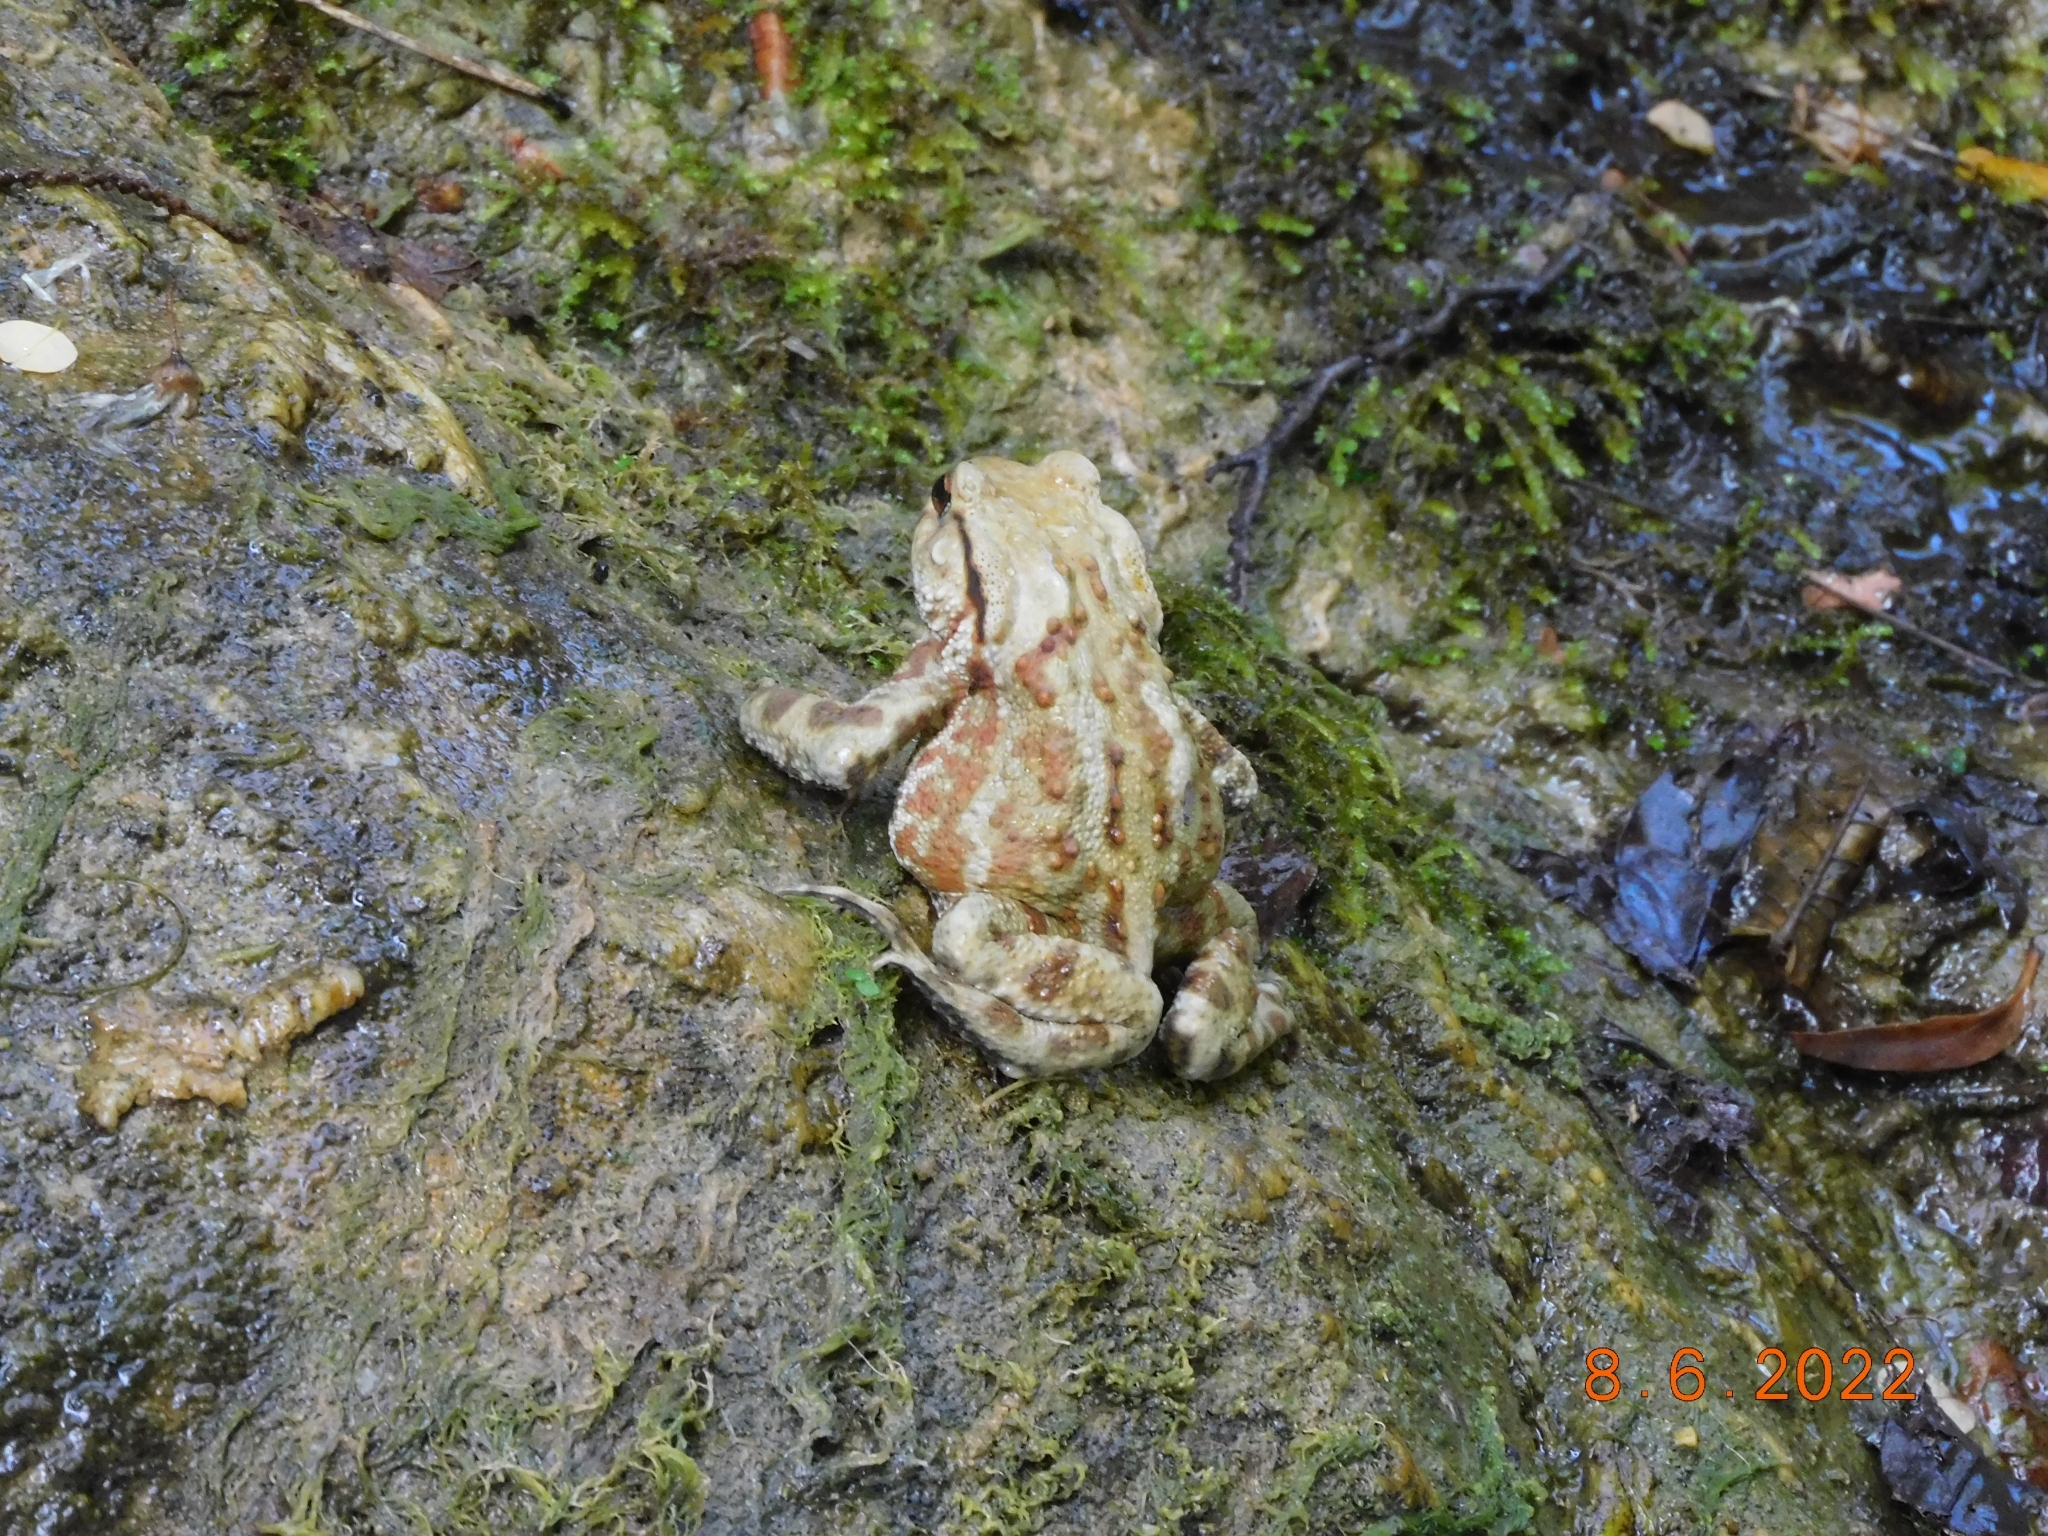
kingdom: Animalia
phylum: Chordata
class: Amphibia
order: Anura
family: Bufonidae
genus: Bufo
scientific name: Bufo bufo
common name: Common toad
